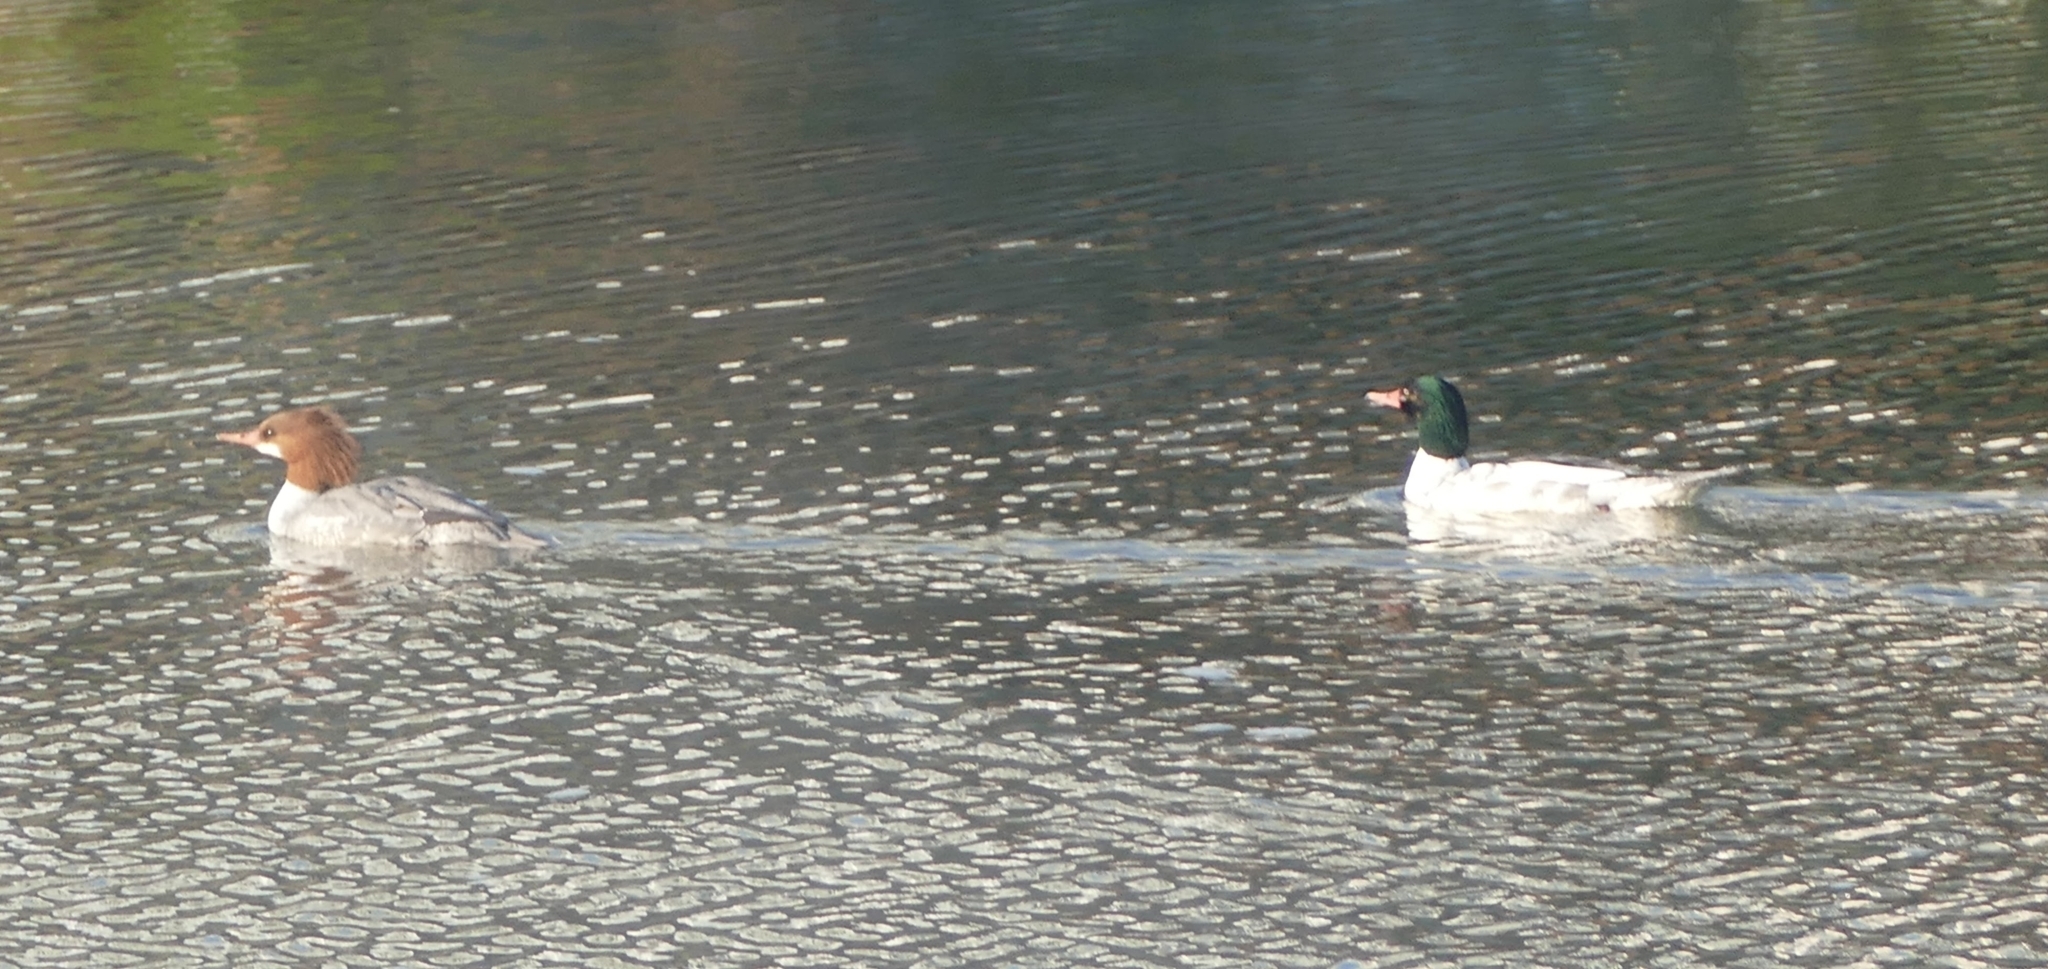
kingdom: Animalia
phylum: Chordata
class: Aves
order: Anseriformes
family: Anatidae
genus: Mergus
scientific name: Mergus merganser
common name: Common merganser
